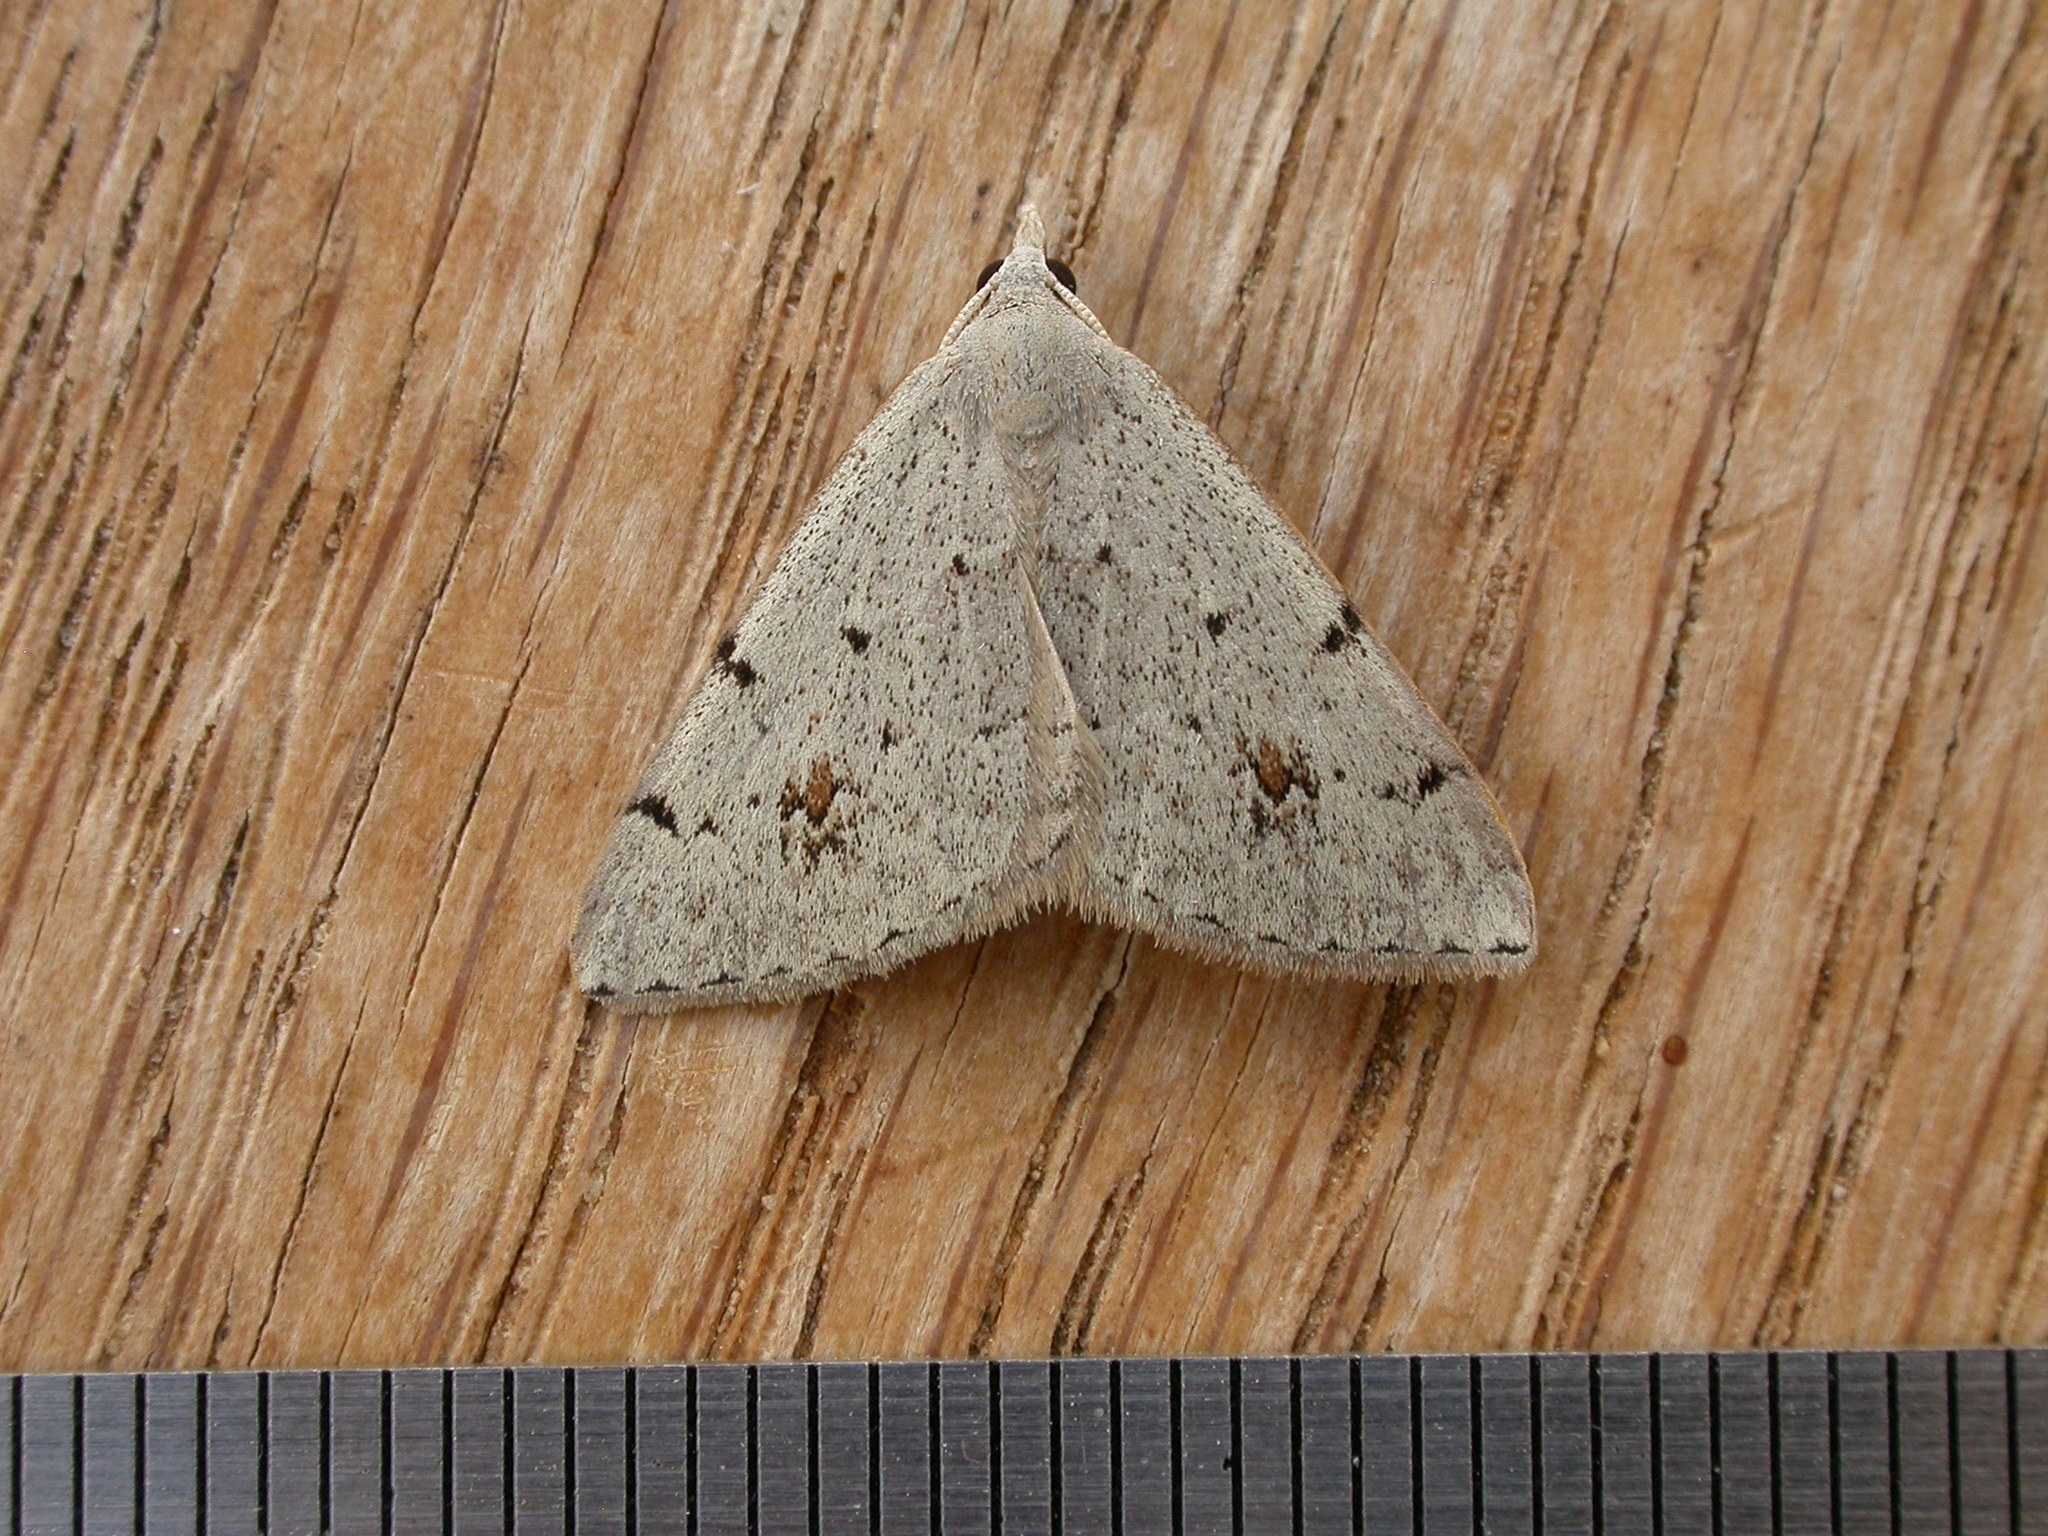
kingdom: Animalia
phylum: Arthropoda
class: Insecta
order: Lepidoptera
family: Geometridae
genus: Dichromodes
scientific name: Dichromodes estigmaria
